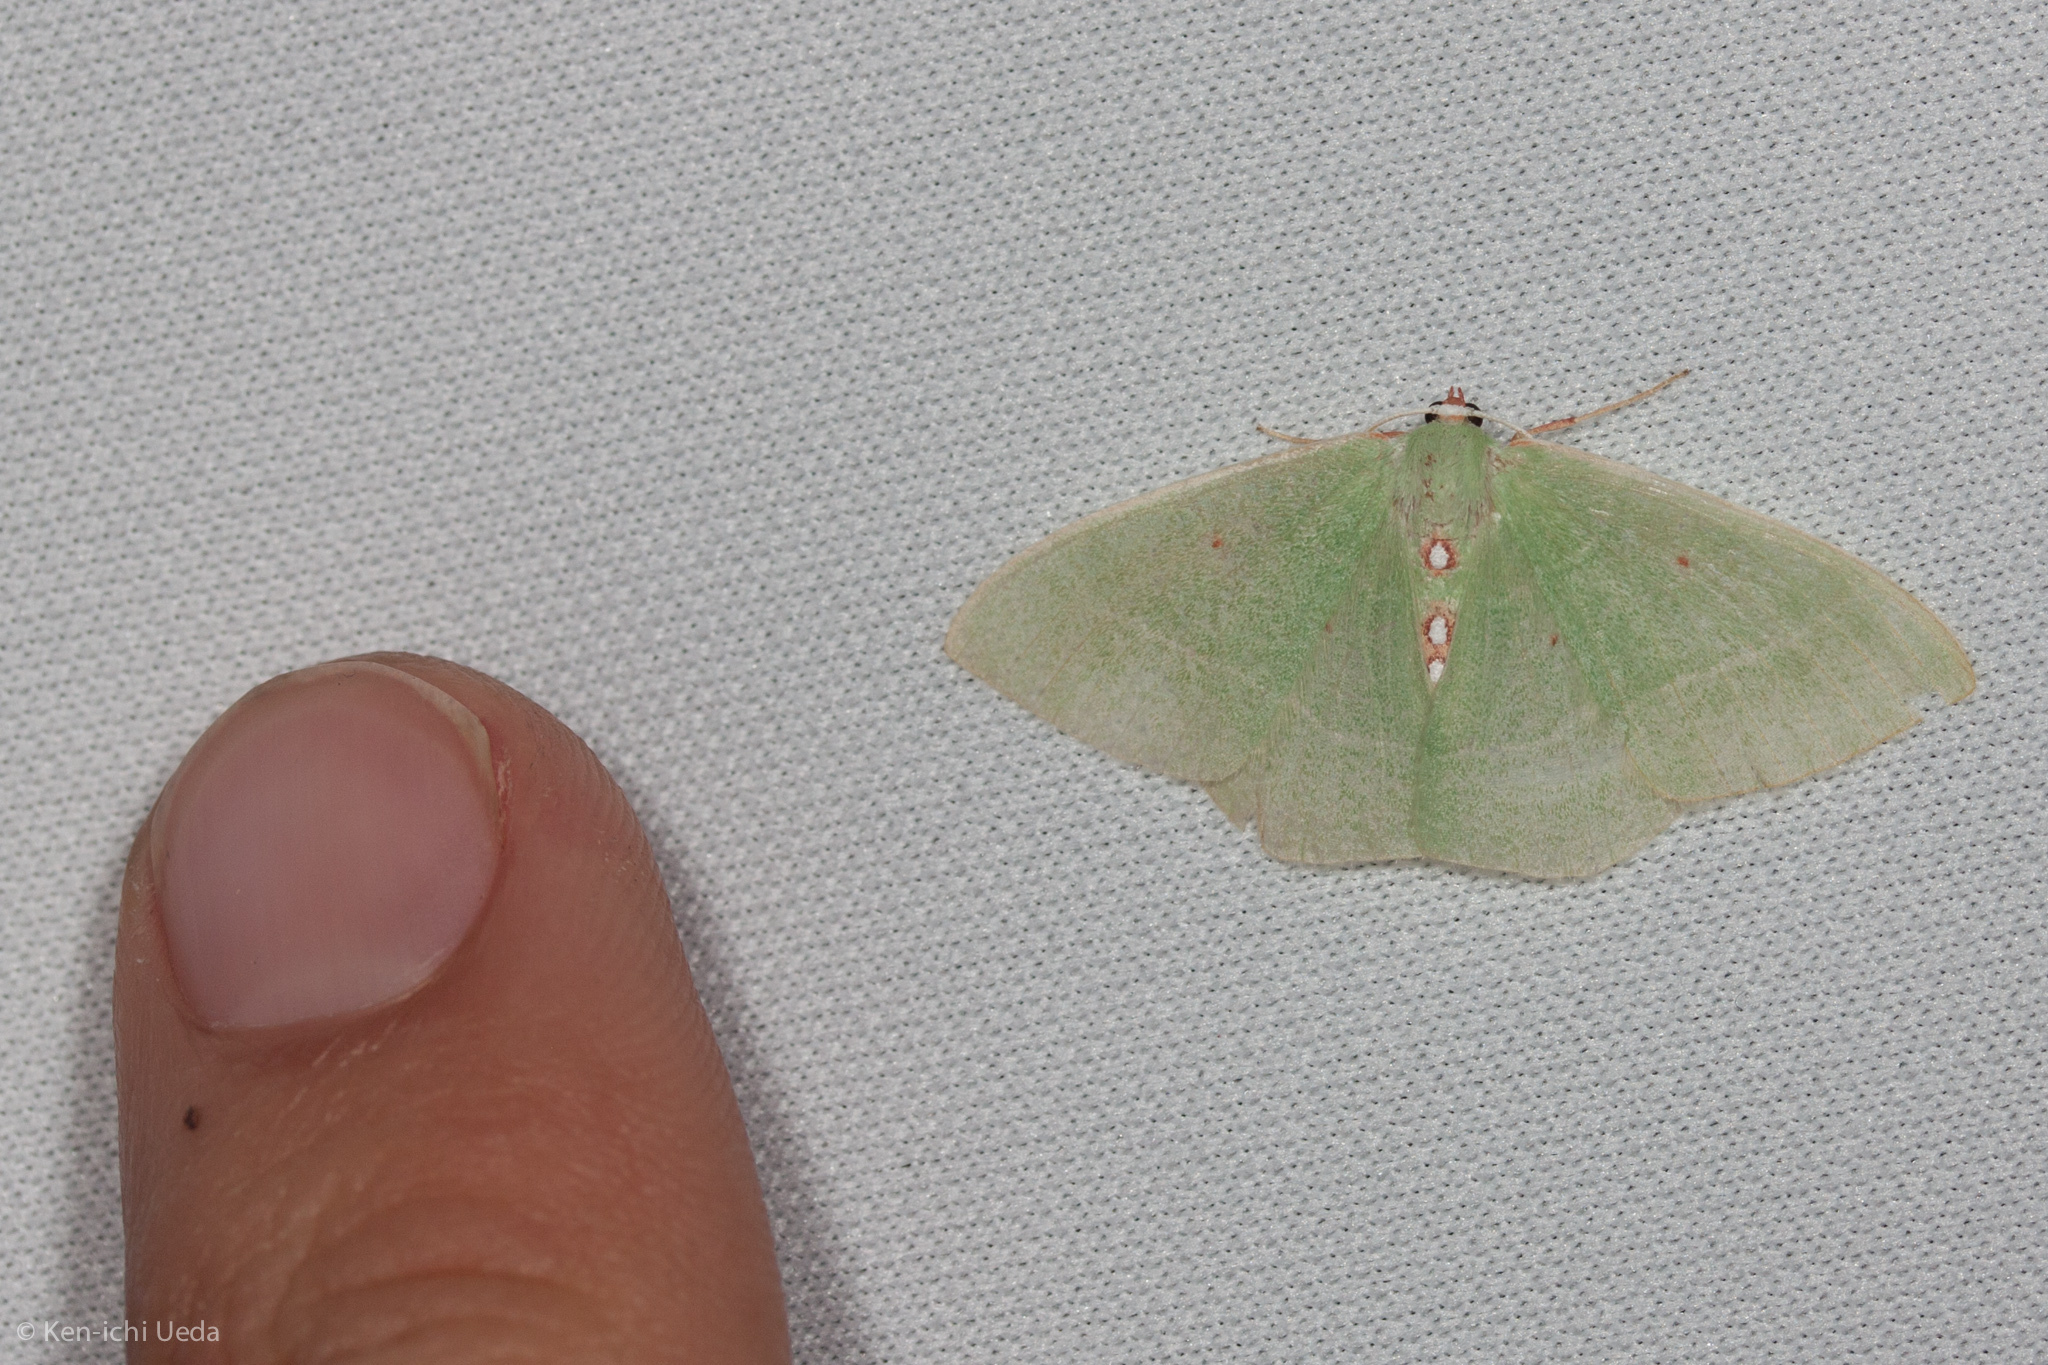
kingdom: Animalia
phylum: Arthropoda
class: Insecta
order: Lepidoptera
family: Geometridae
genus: Nemoria
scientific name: Nemoria darwiniata
